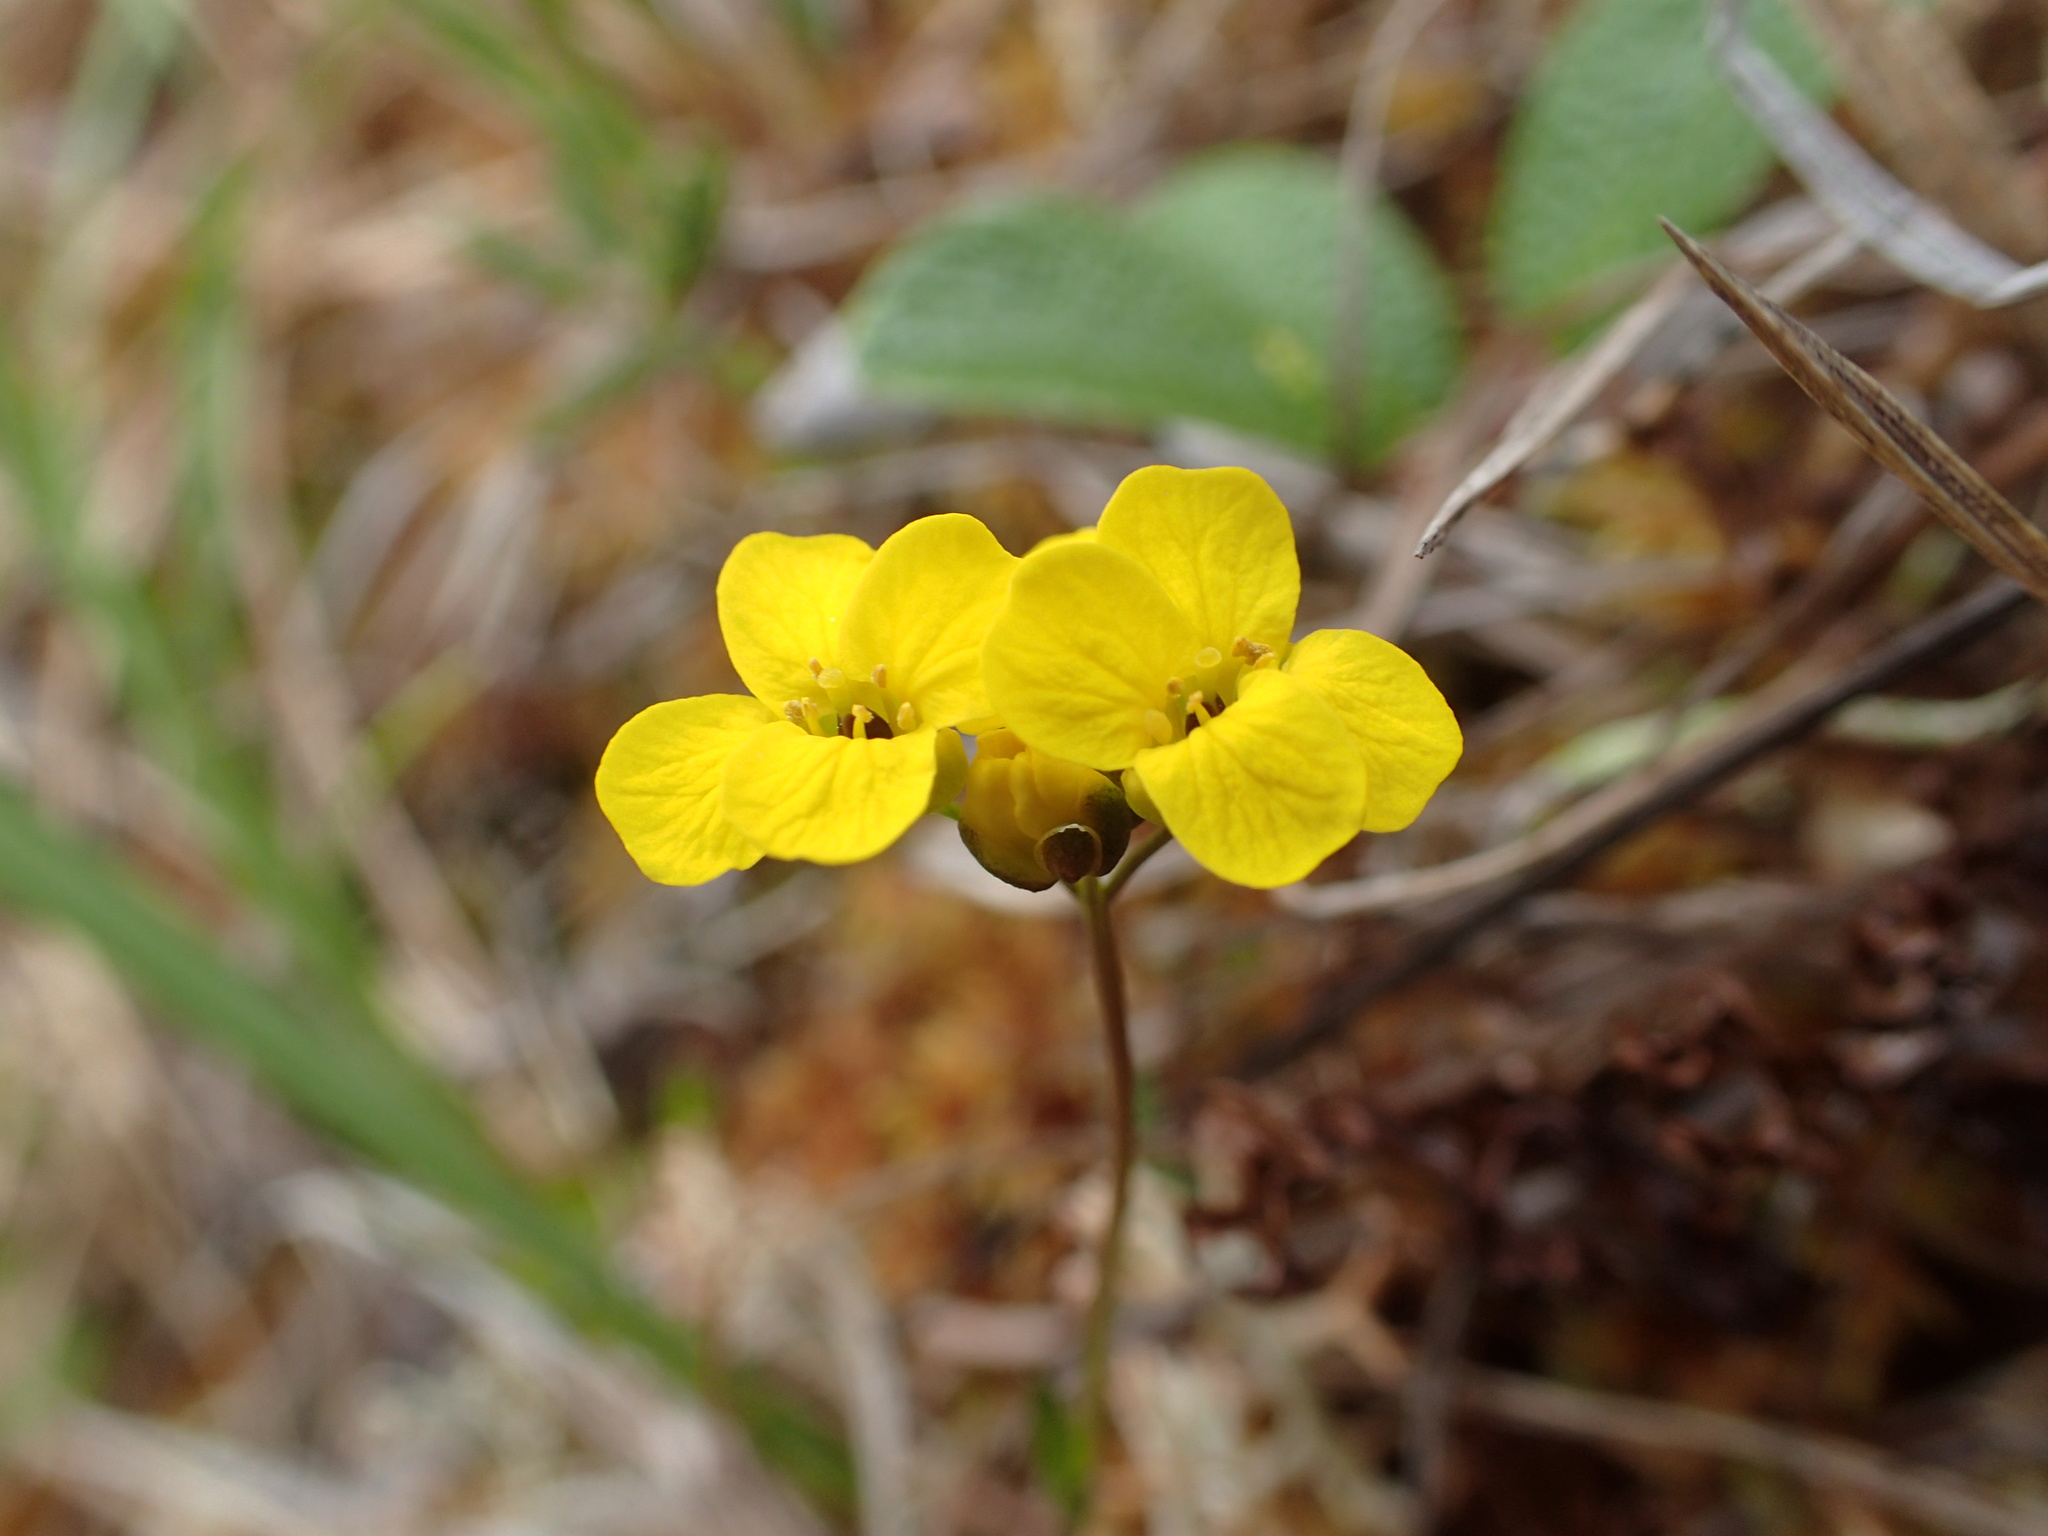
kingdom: Plantae
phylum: Tracheophyta
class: Magnoliopsida
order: Brassicales
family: Brassicaceae
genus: Draba
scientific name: Draba ogilviensis
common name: Ogilvie mountains draba
